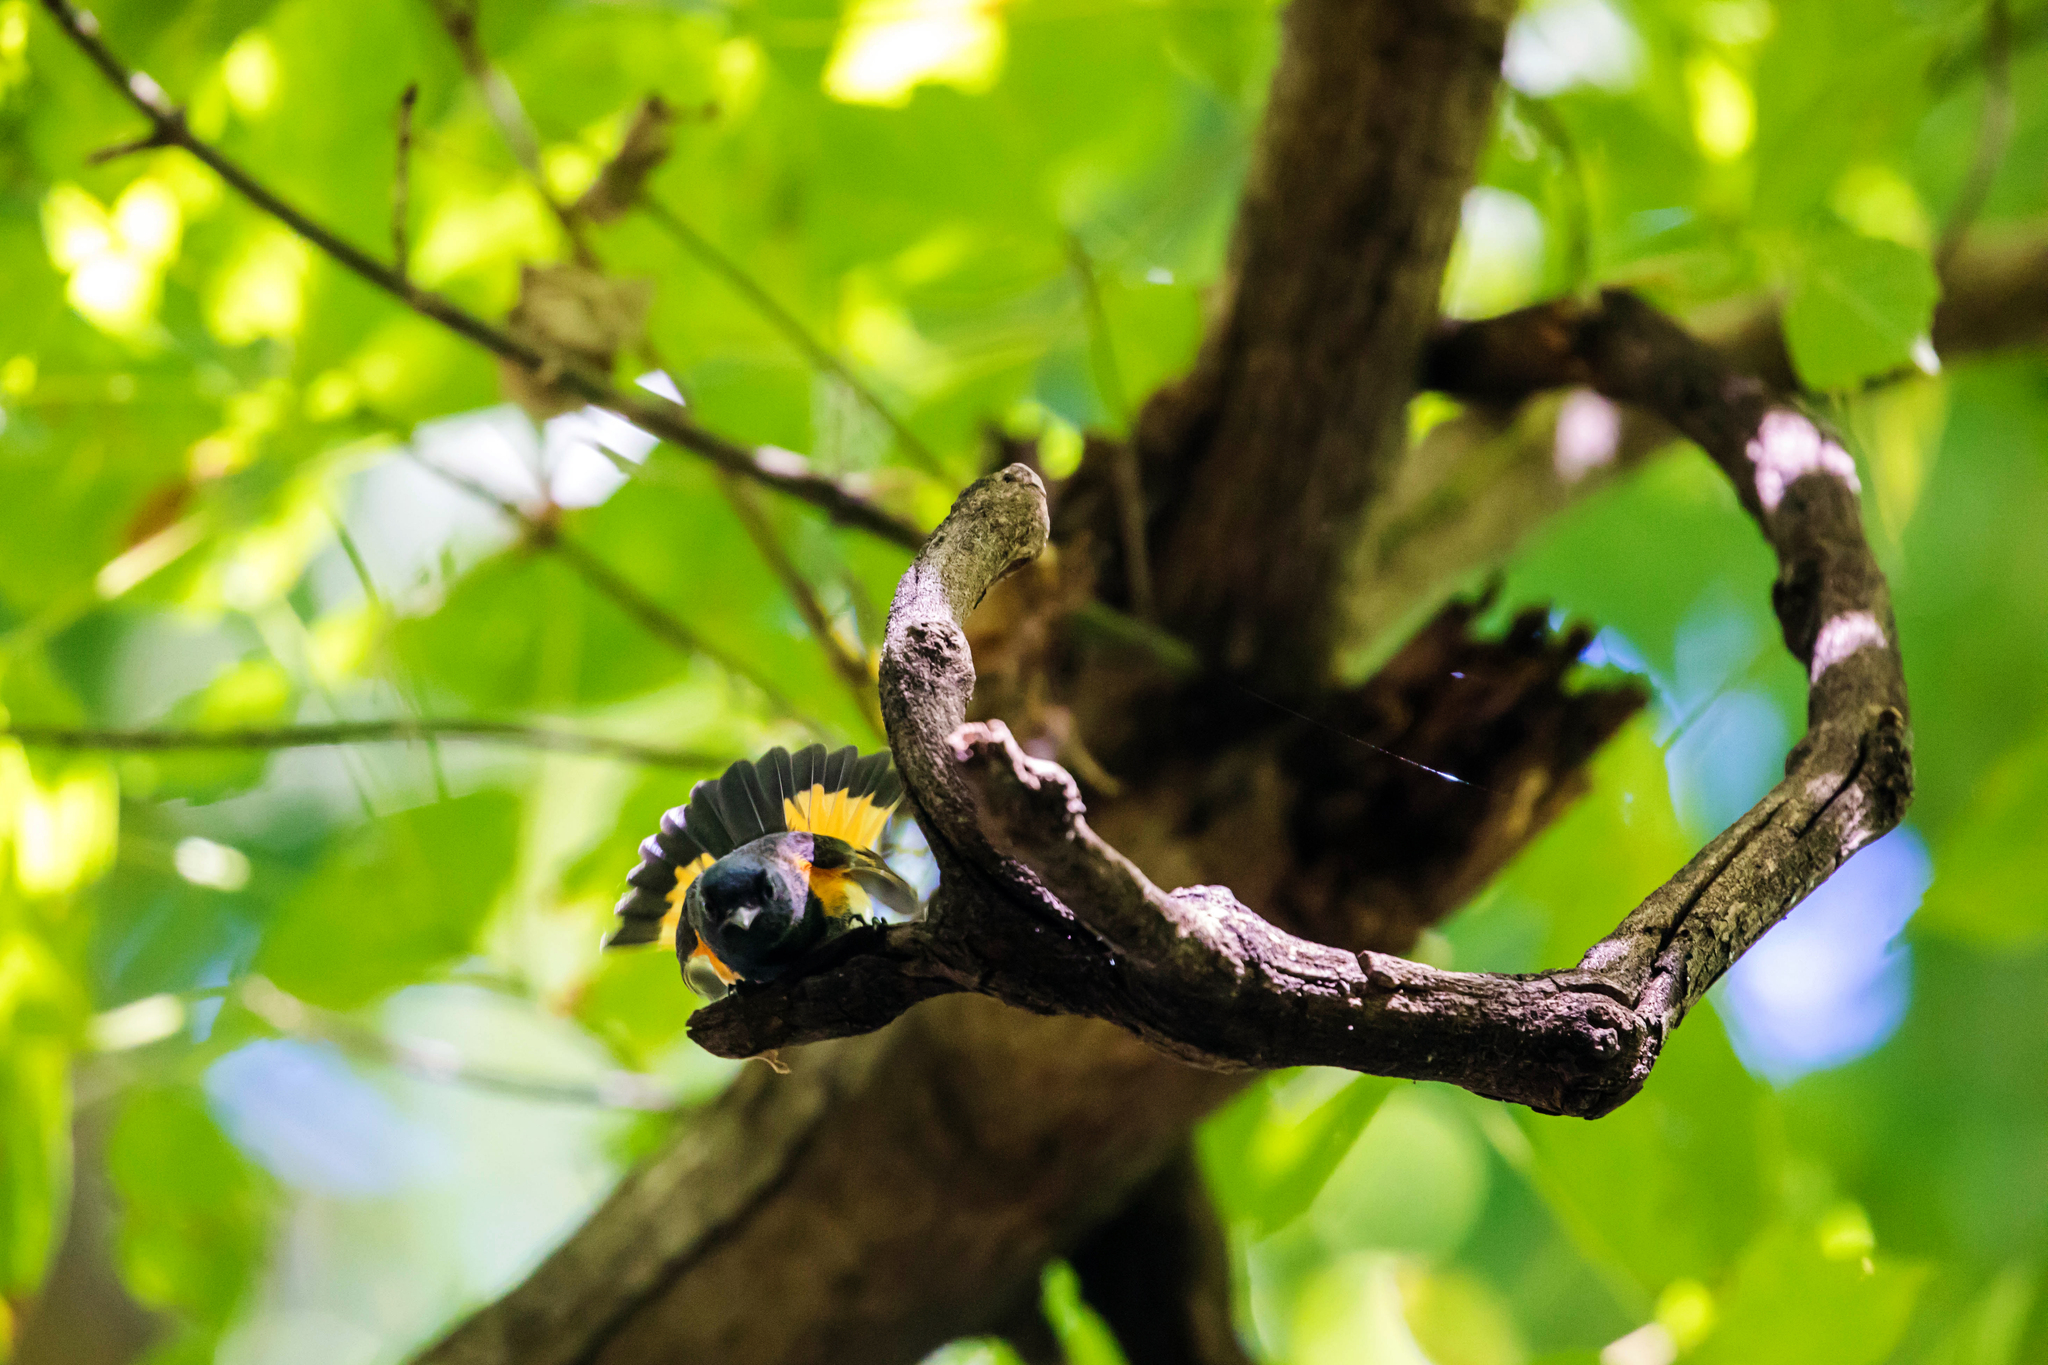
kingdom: Animalia
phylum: Chordata
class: Aves
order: Passeriformes
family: Parulidae
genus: Setophaga
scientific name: Setophaga ruticilla
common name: American redstart
